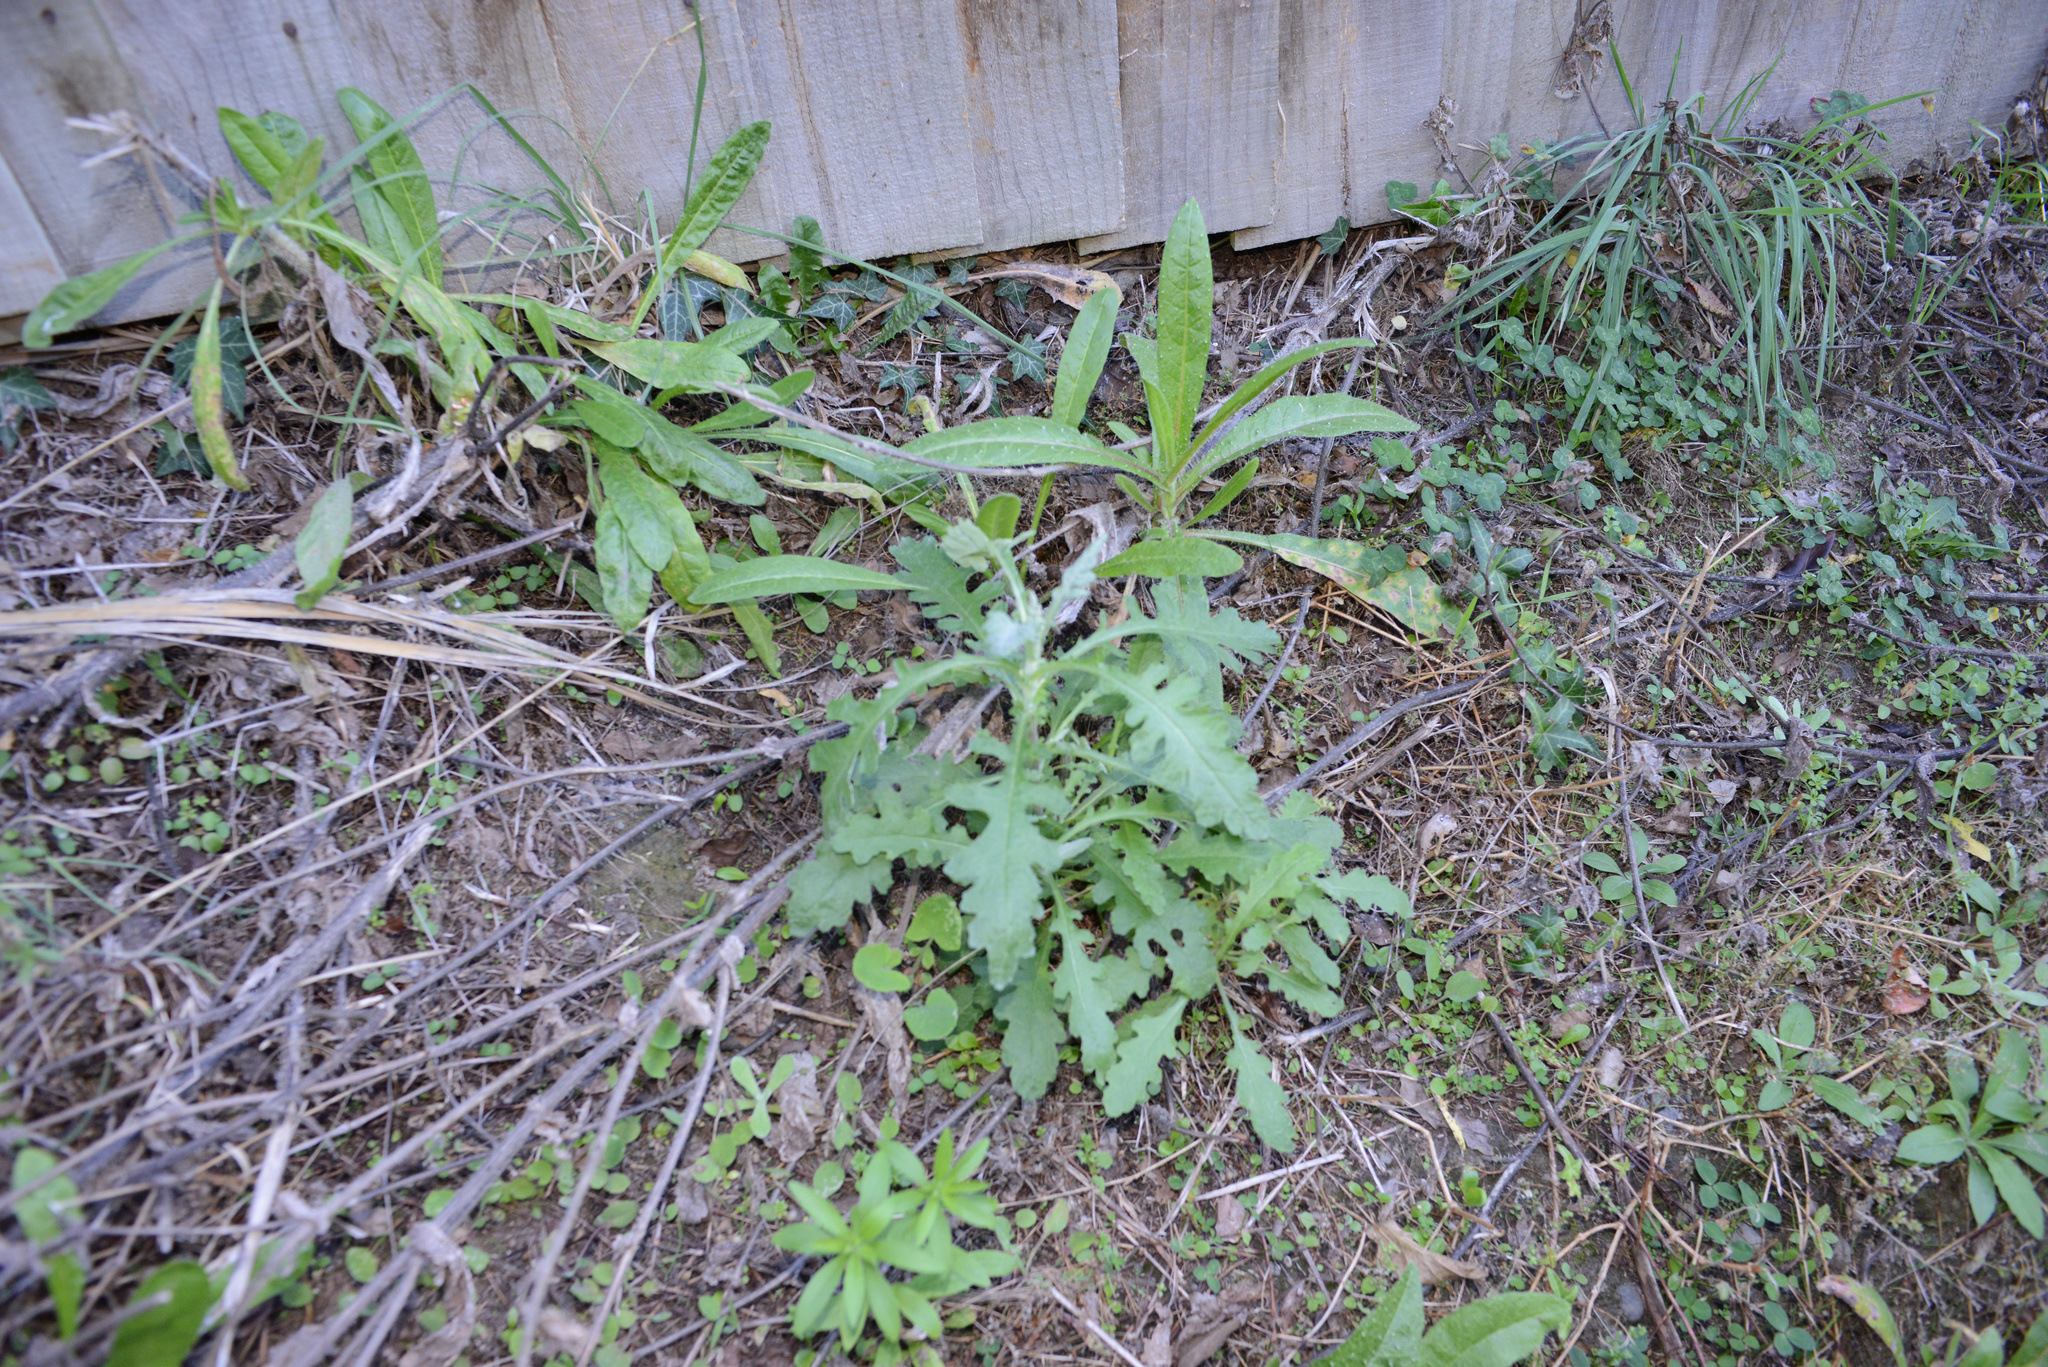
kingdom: Plantae
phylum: Tracheophyta
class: Magnoliopsida
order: Asterales
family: Asteraceae
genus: Senecio
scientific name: Senecio glomeratus
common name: Cutleaf burnweed
